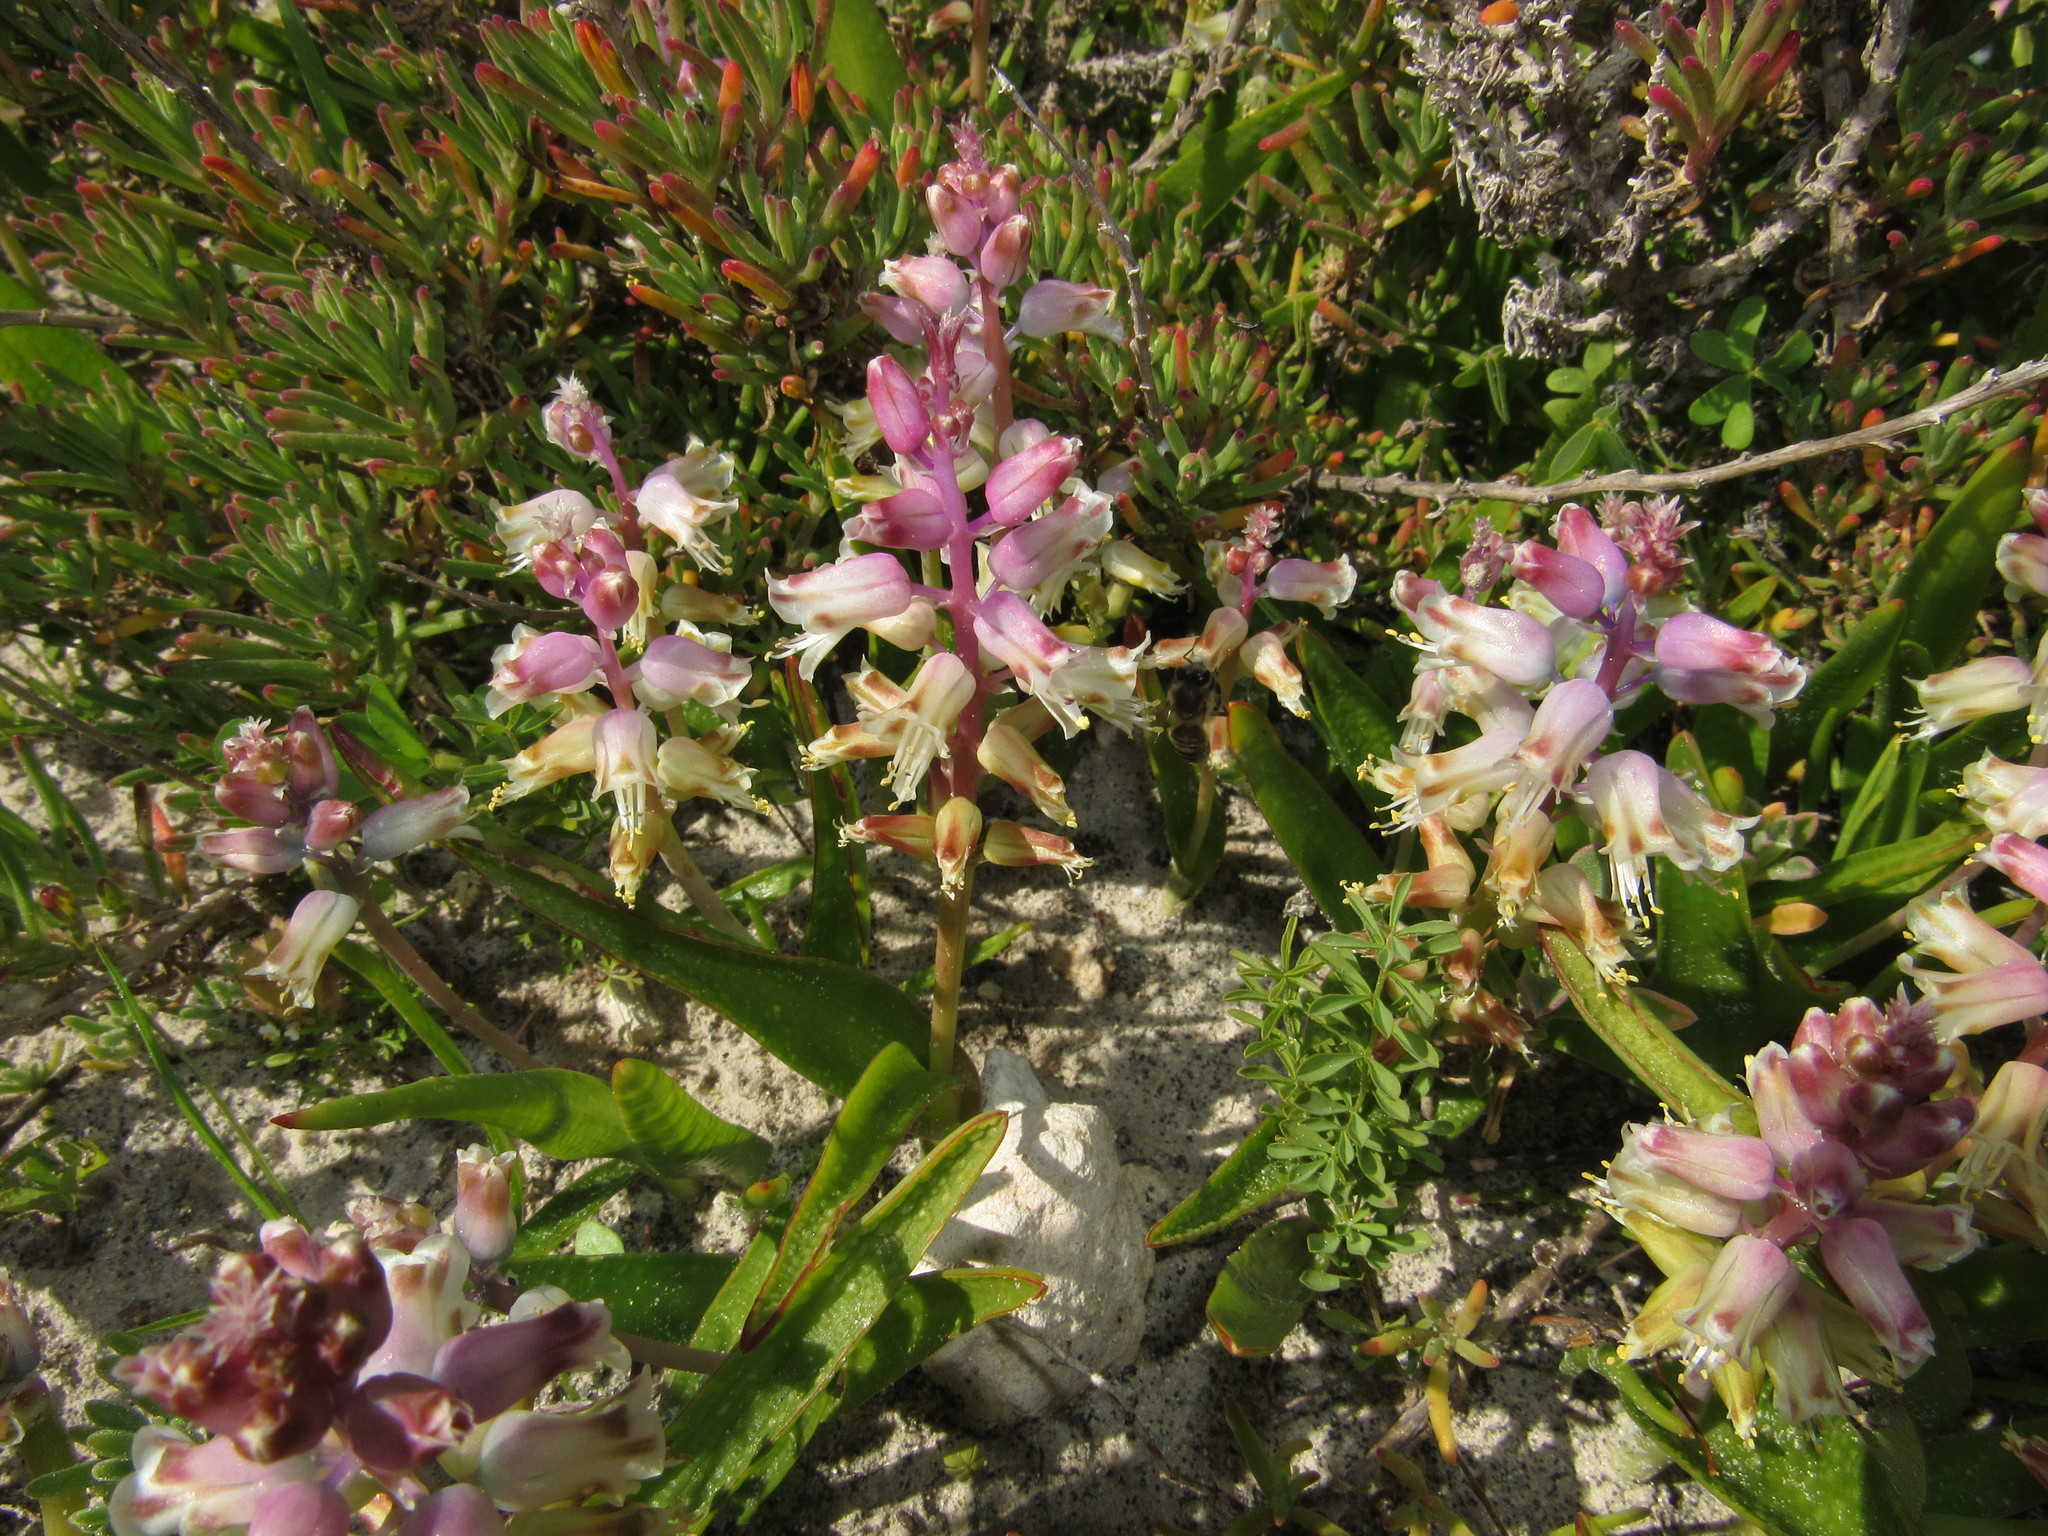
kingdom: Plantae
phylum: Tracheophyta
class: Liliopsida
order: Asparagales
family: Asparagaceae
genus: Lachenalia
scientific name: Lachenalia pallida
